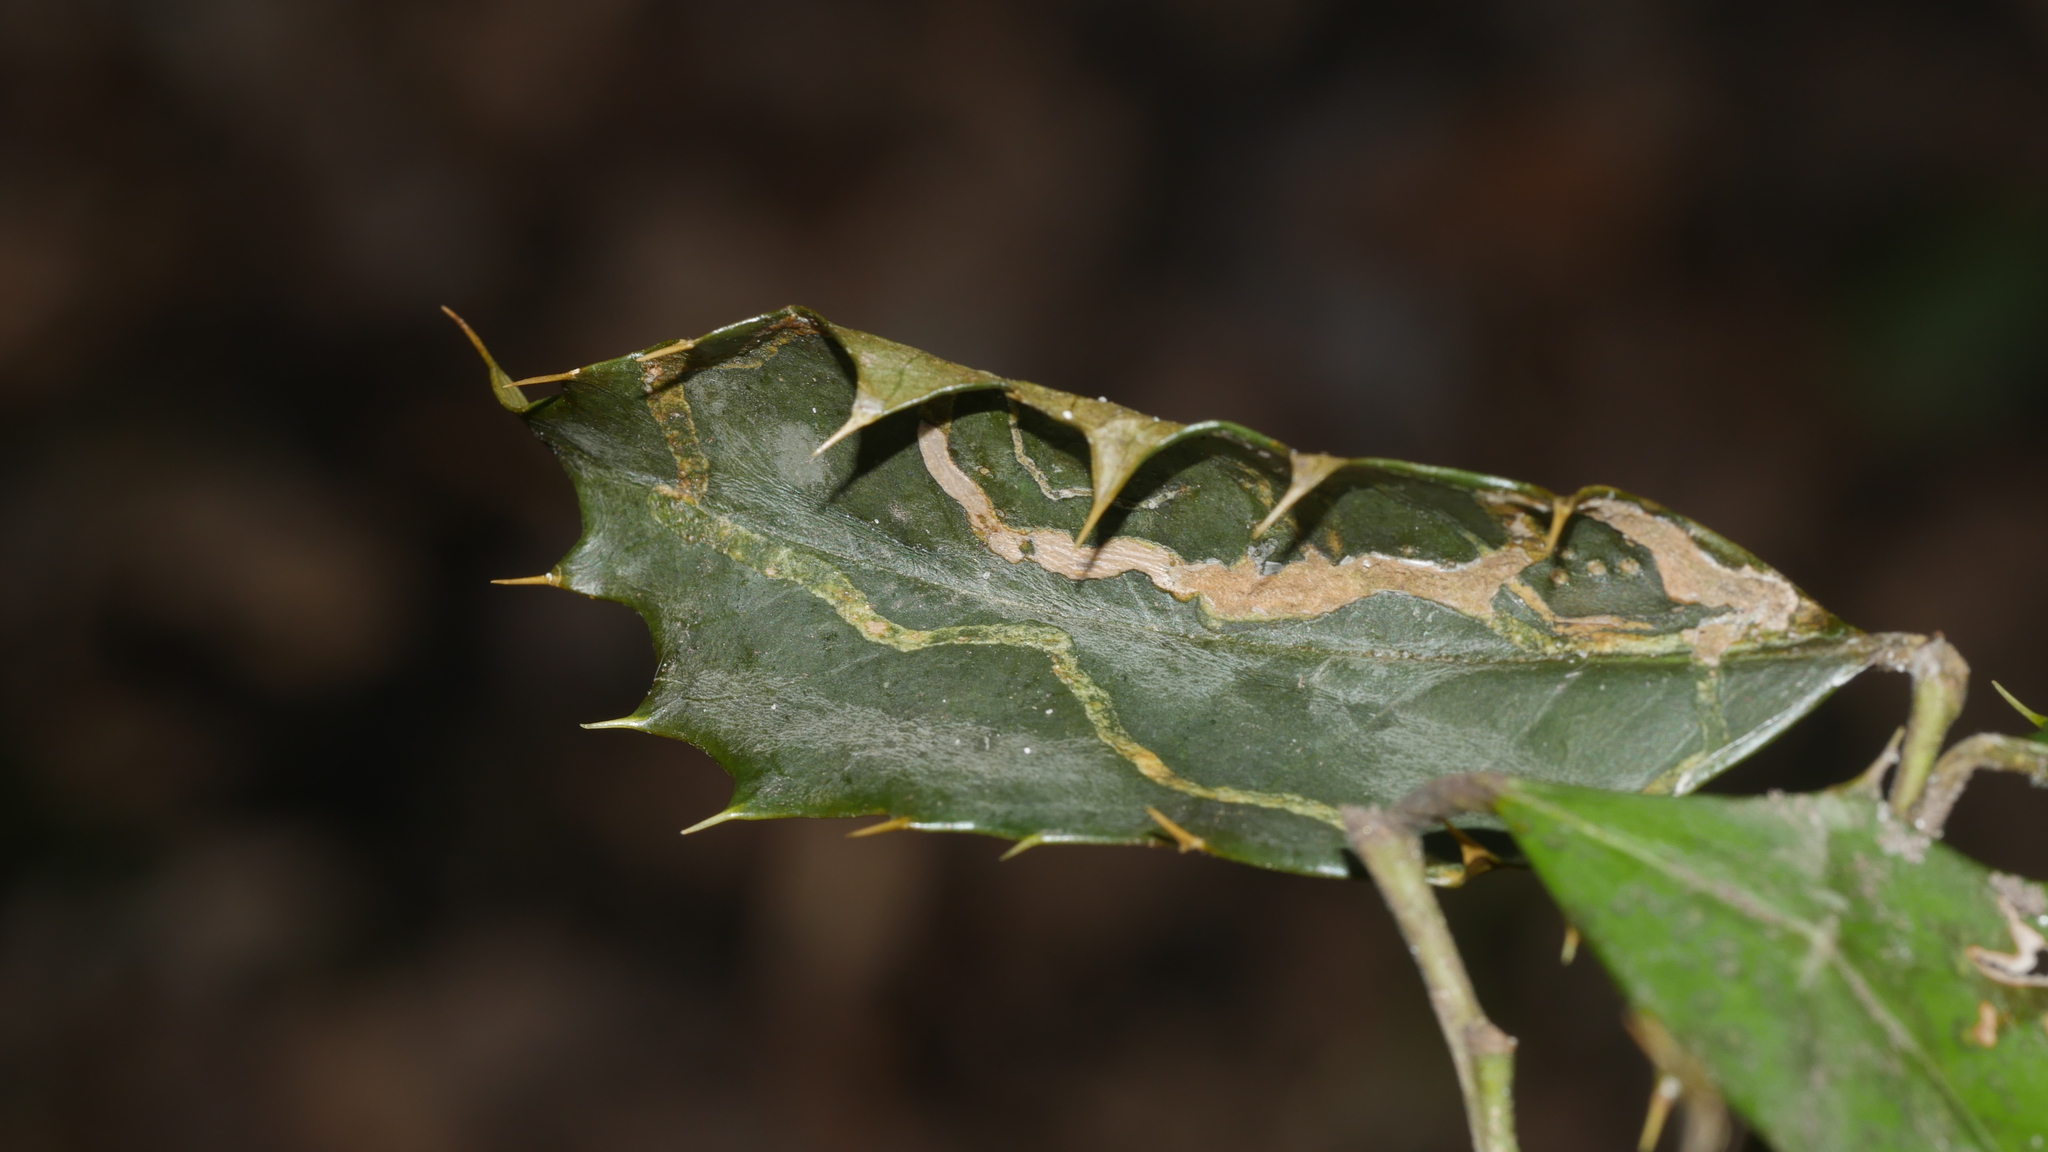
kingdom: Animalia
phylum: Arthropoda
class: Insecta
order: Diptera
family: Agromyzidae
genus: Phytomyza
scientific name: Phytomyza opacae
